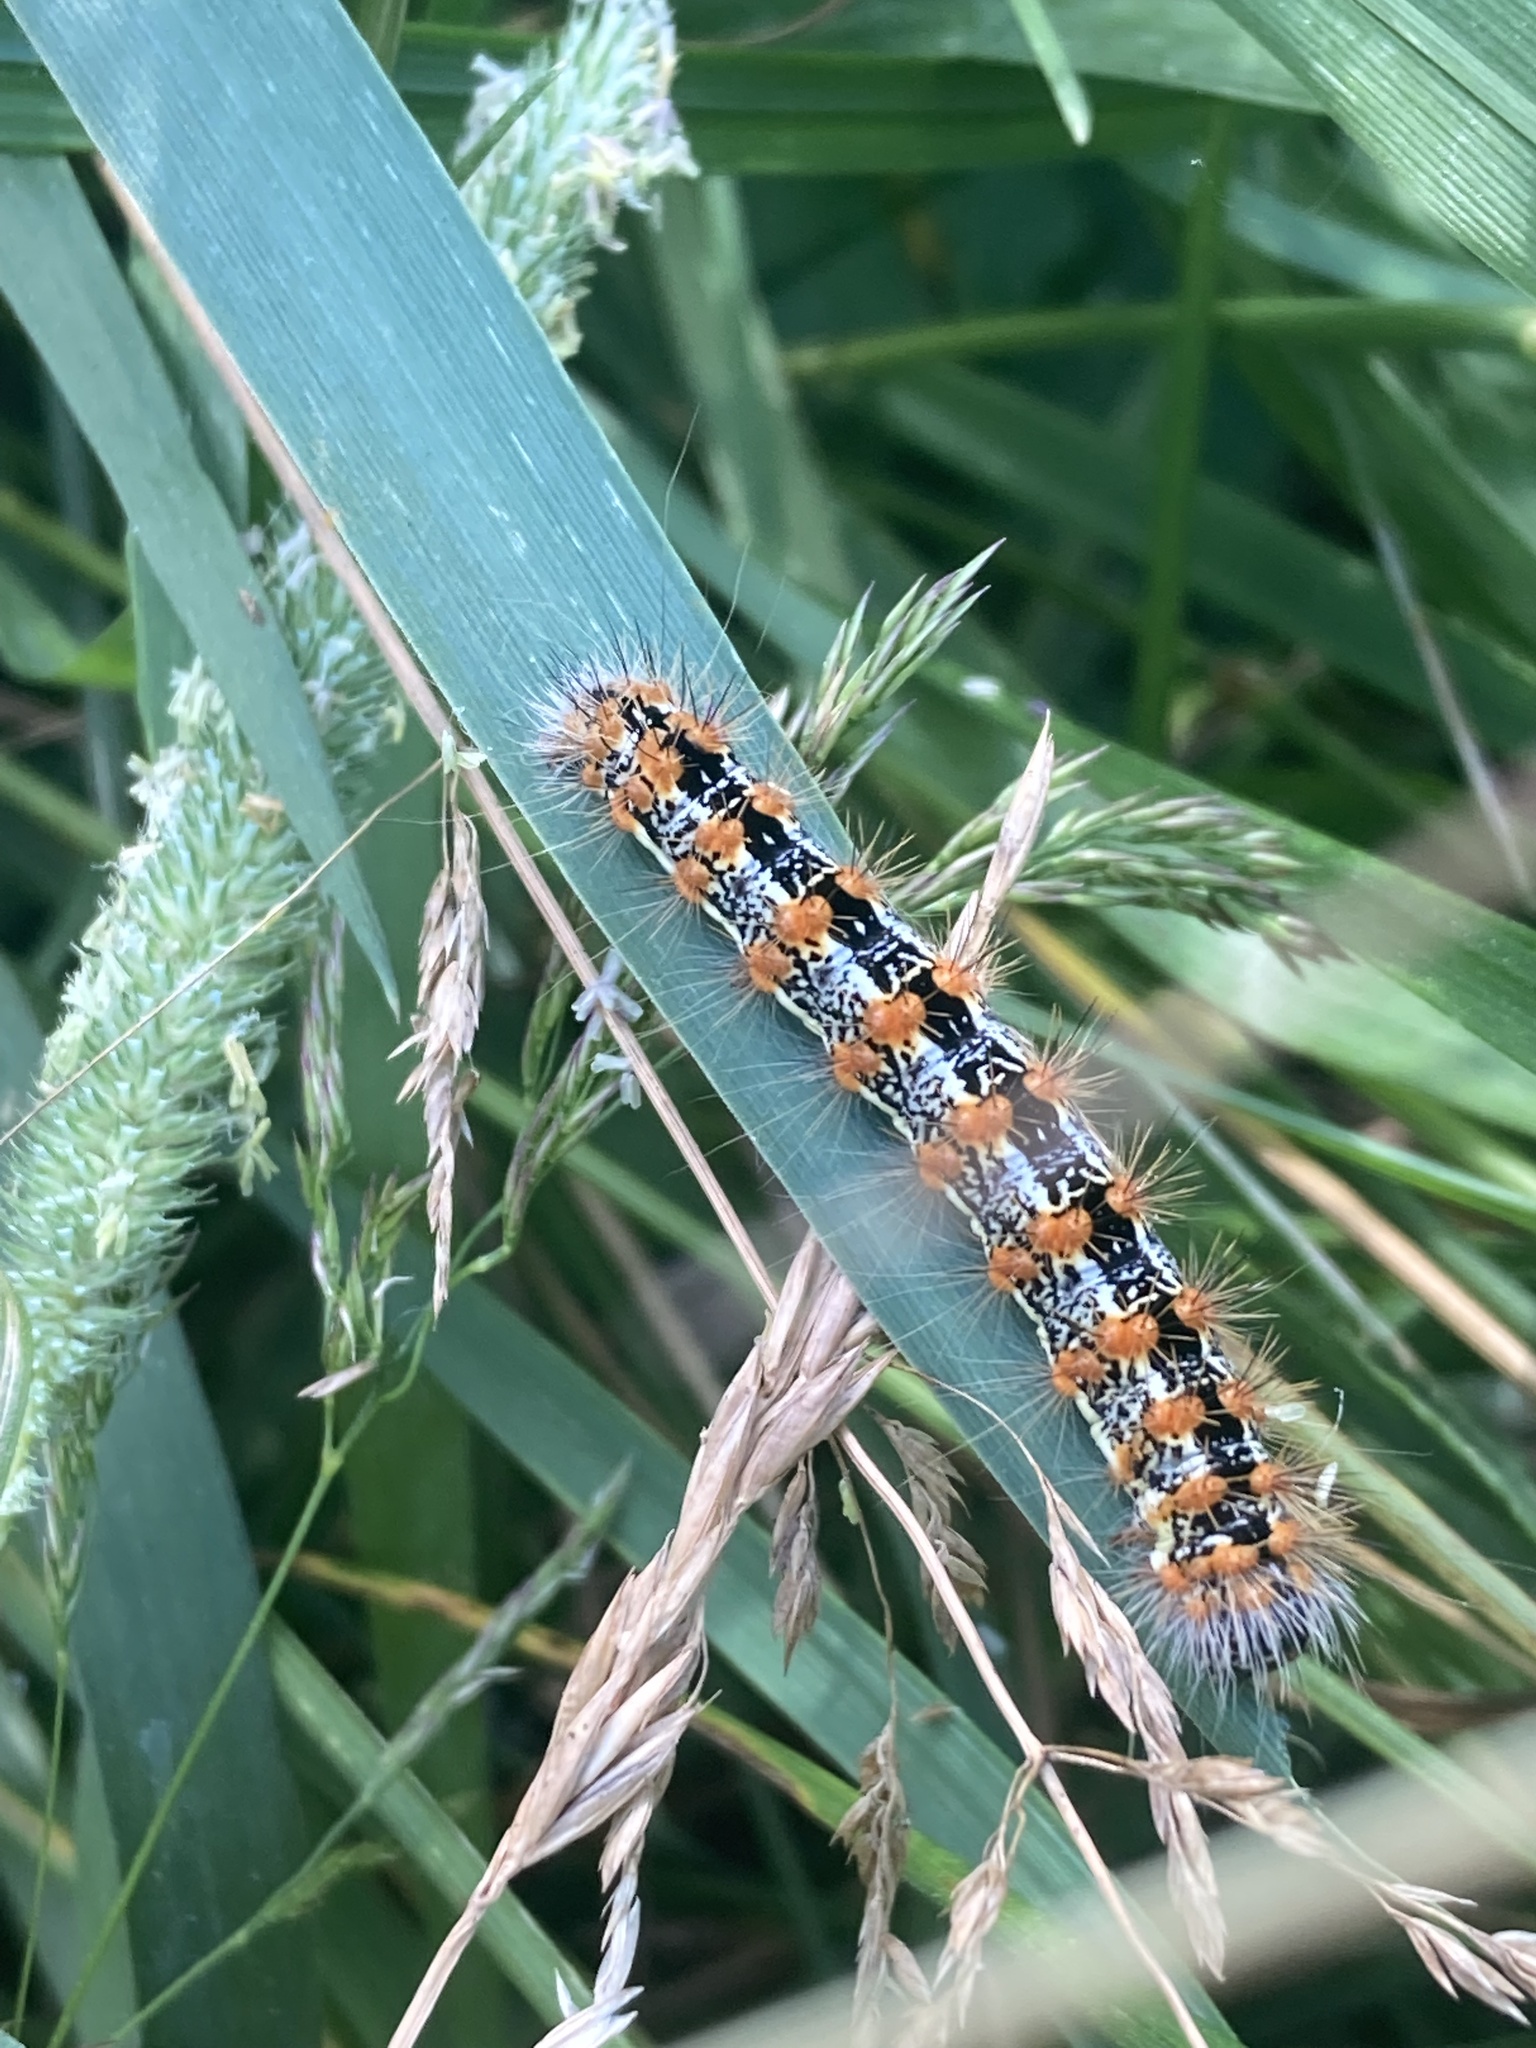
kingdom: Animalia
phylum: Arthropoda
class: Insecta
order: Lepidoptera
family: Noctuidae
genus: Acronicta
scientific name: Acronicta insularis
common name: Henry's marsh moth
